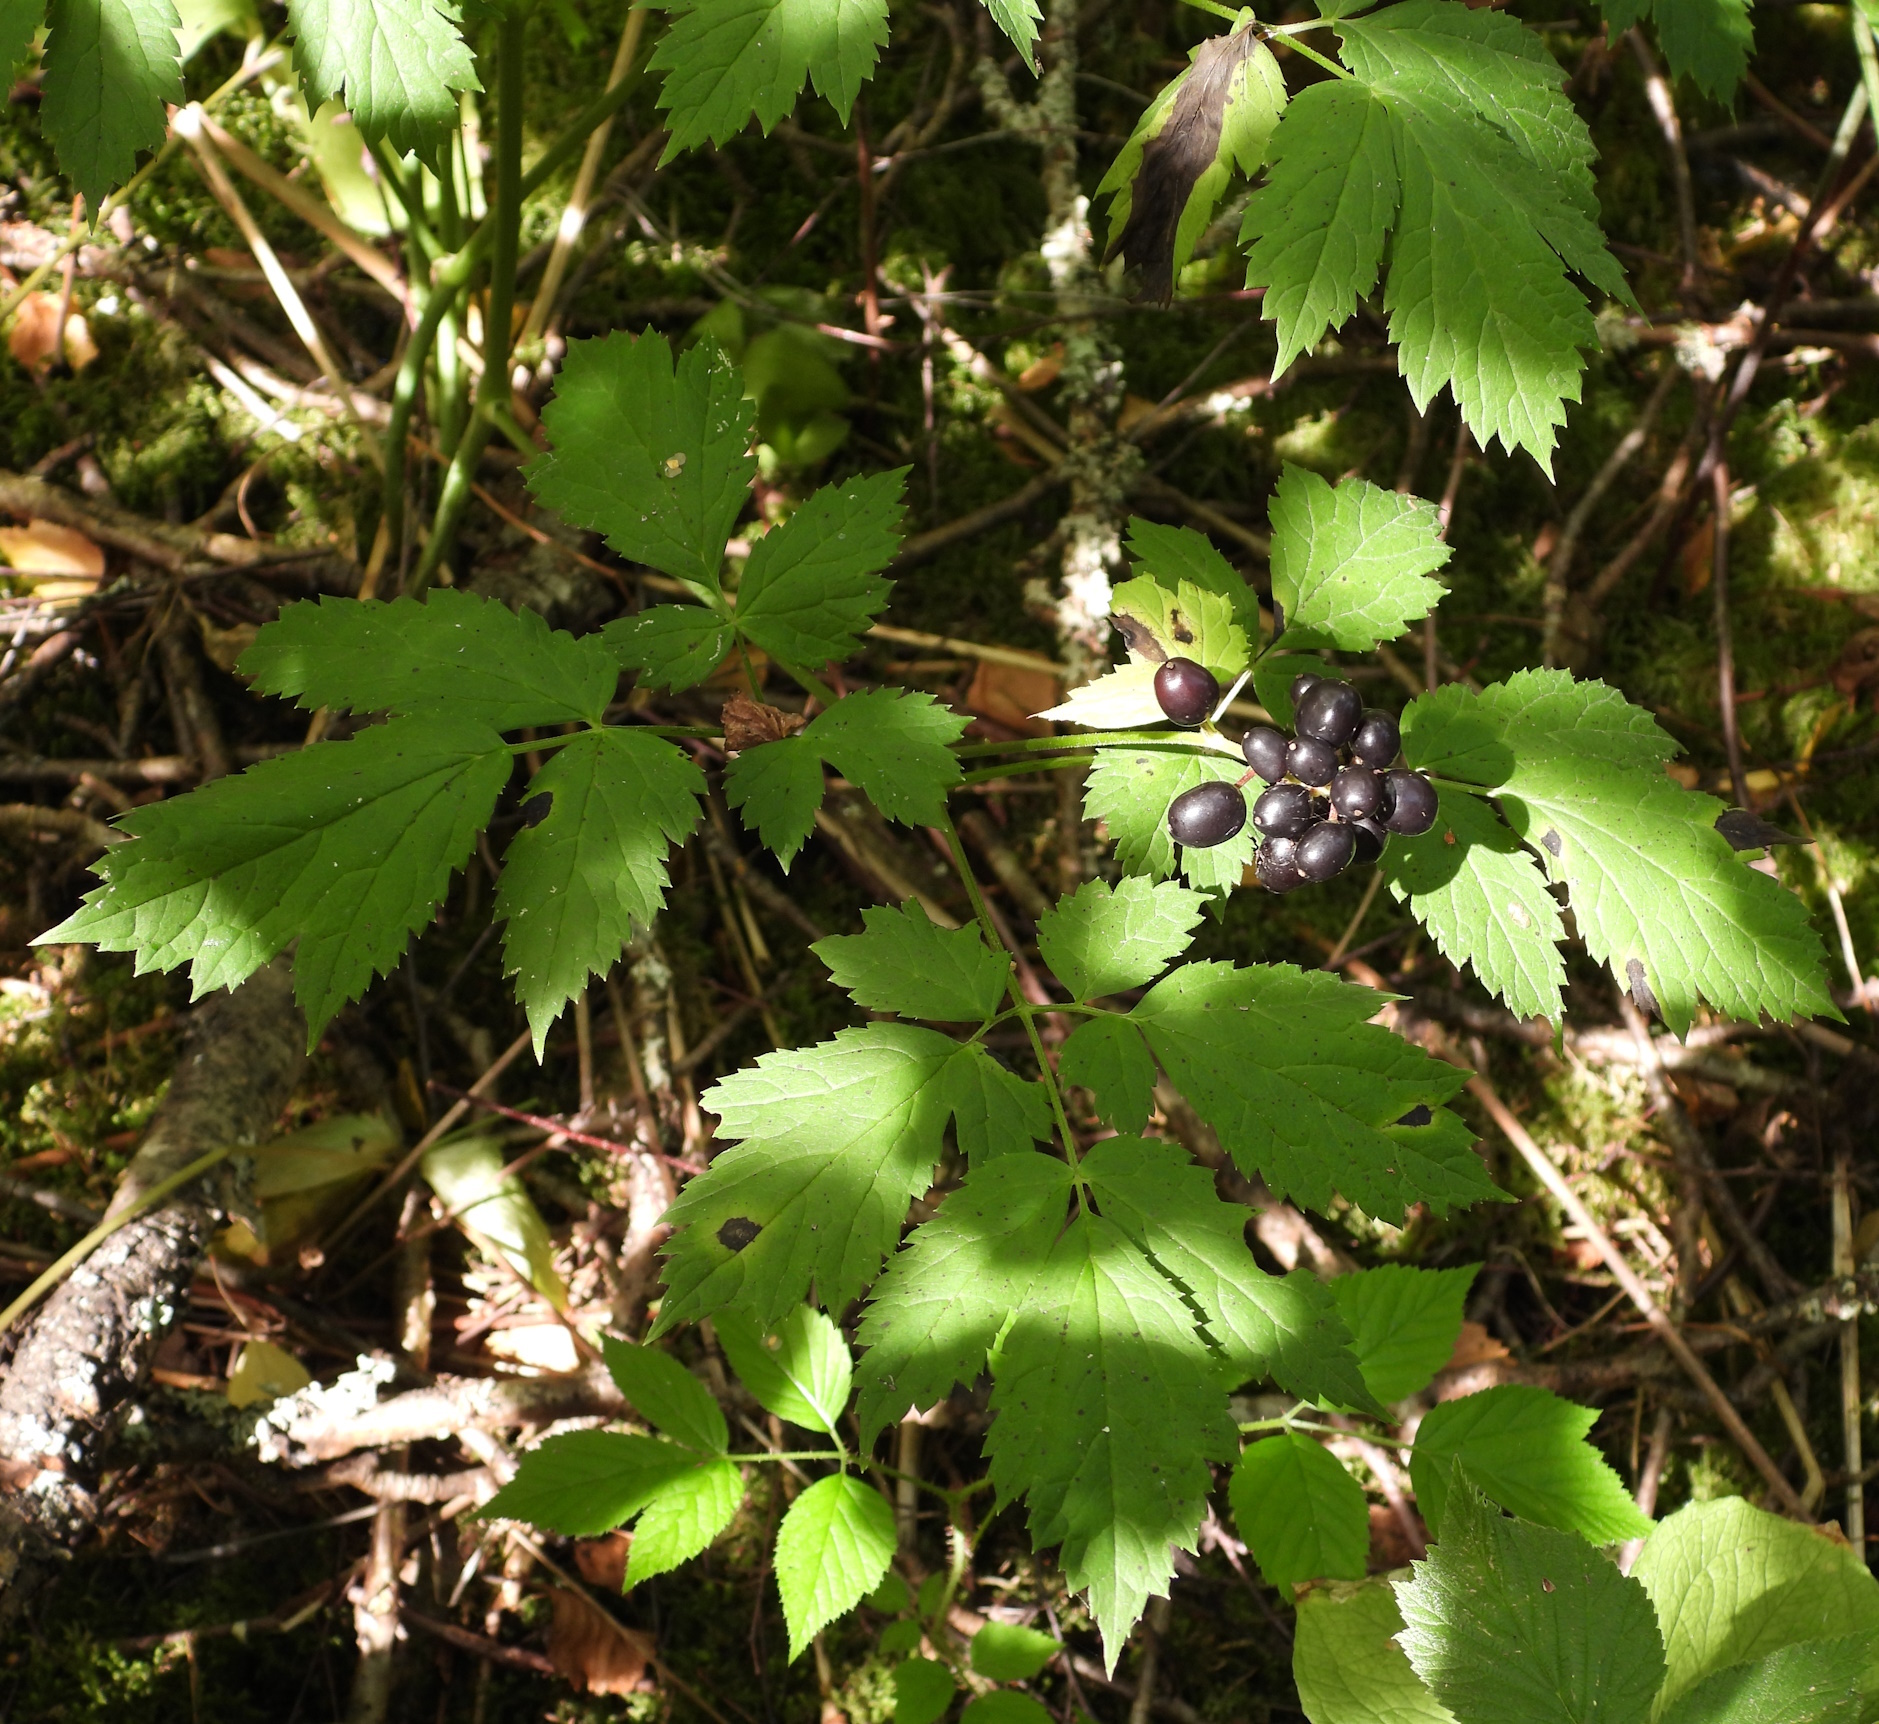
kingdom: Plantae
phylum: Tracheophyta
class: Magnoliopsida
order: Ranunculales
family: Ranunculaceae
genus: Actaea
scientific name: Actaea spicata
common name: Baneberry
